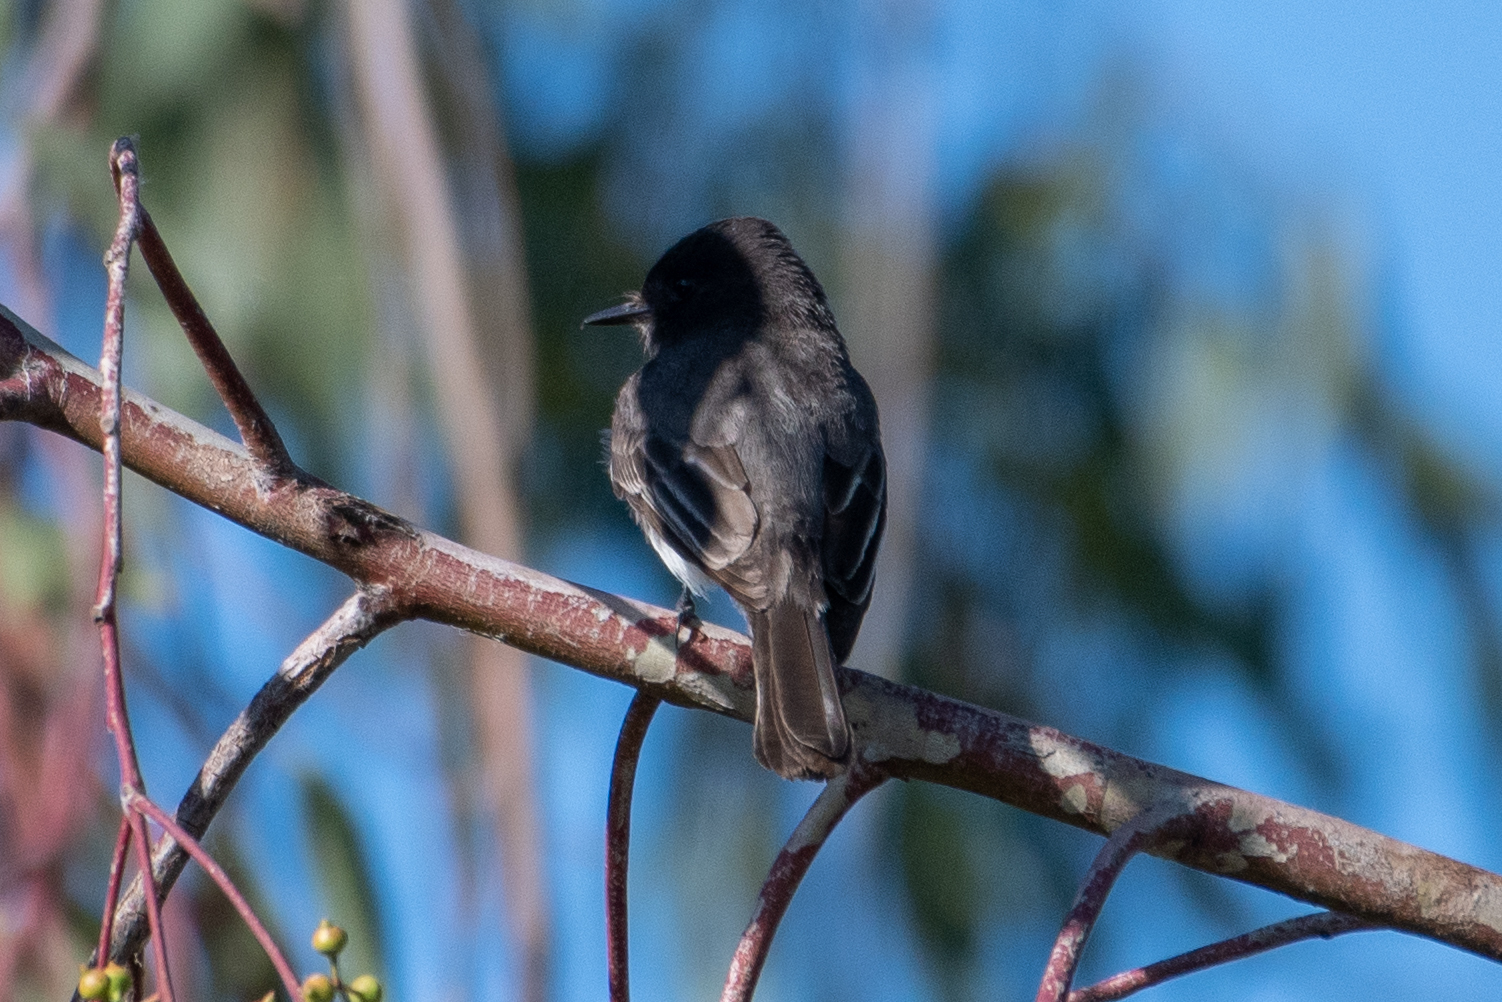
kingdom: Animalia
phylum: Chordata
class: Aves
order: Passeriformes
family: Tyrannidae
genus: Sayornis
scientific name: Sayornis nigricans
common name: Black phoebe
